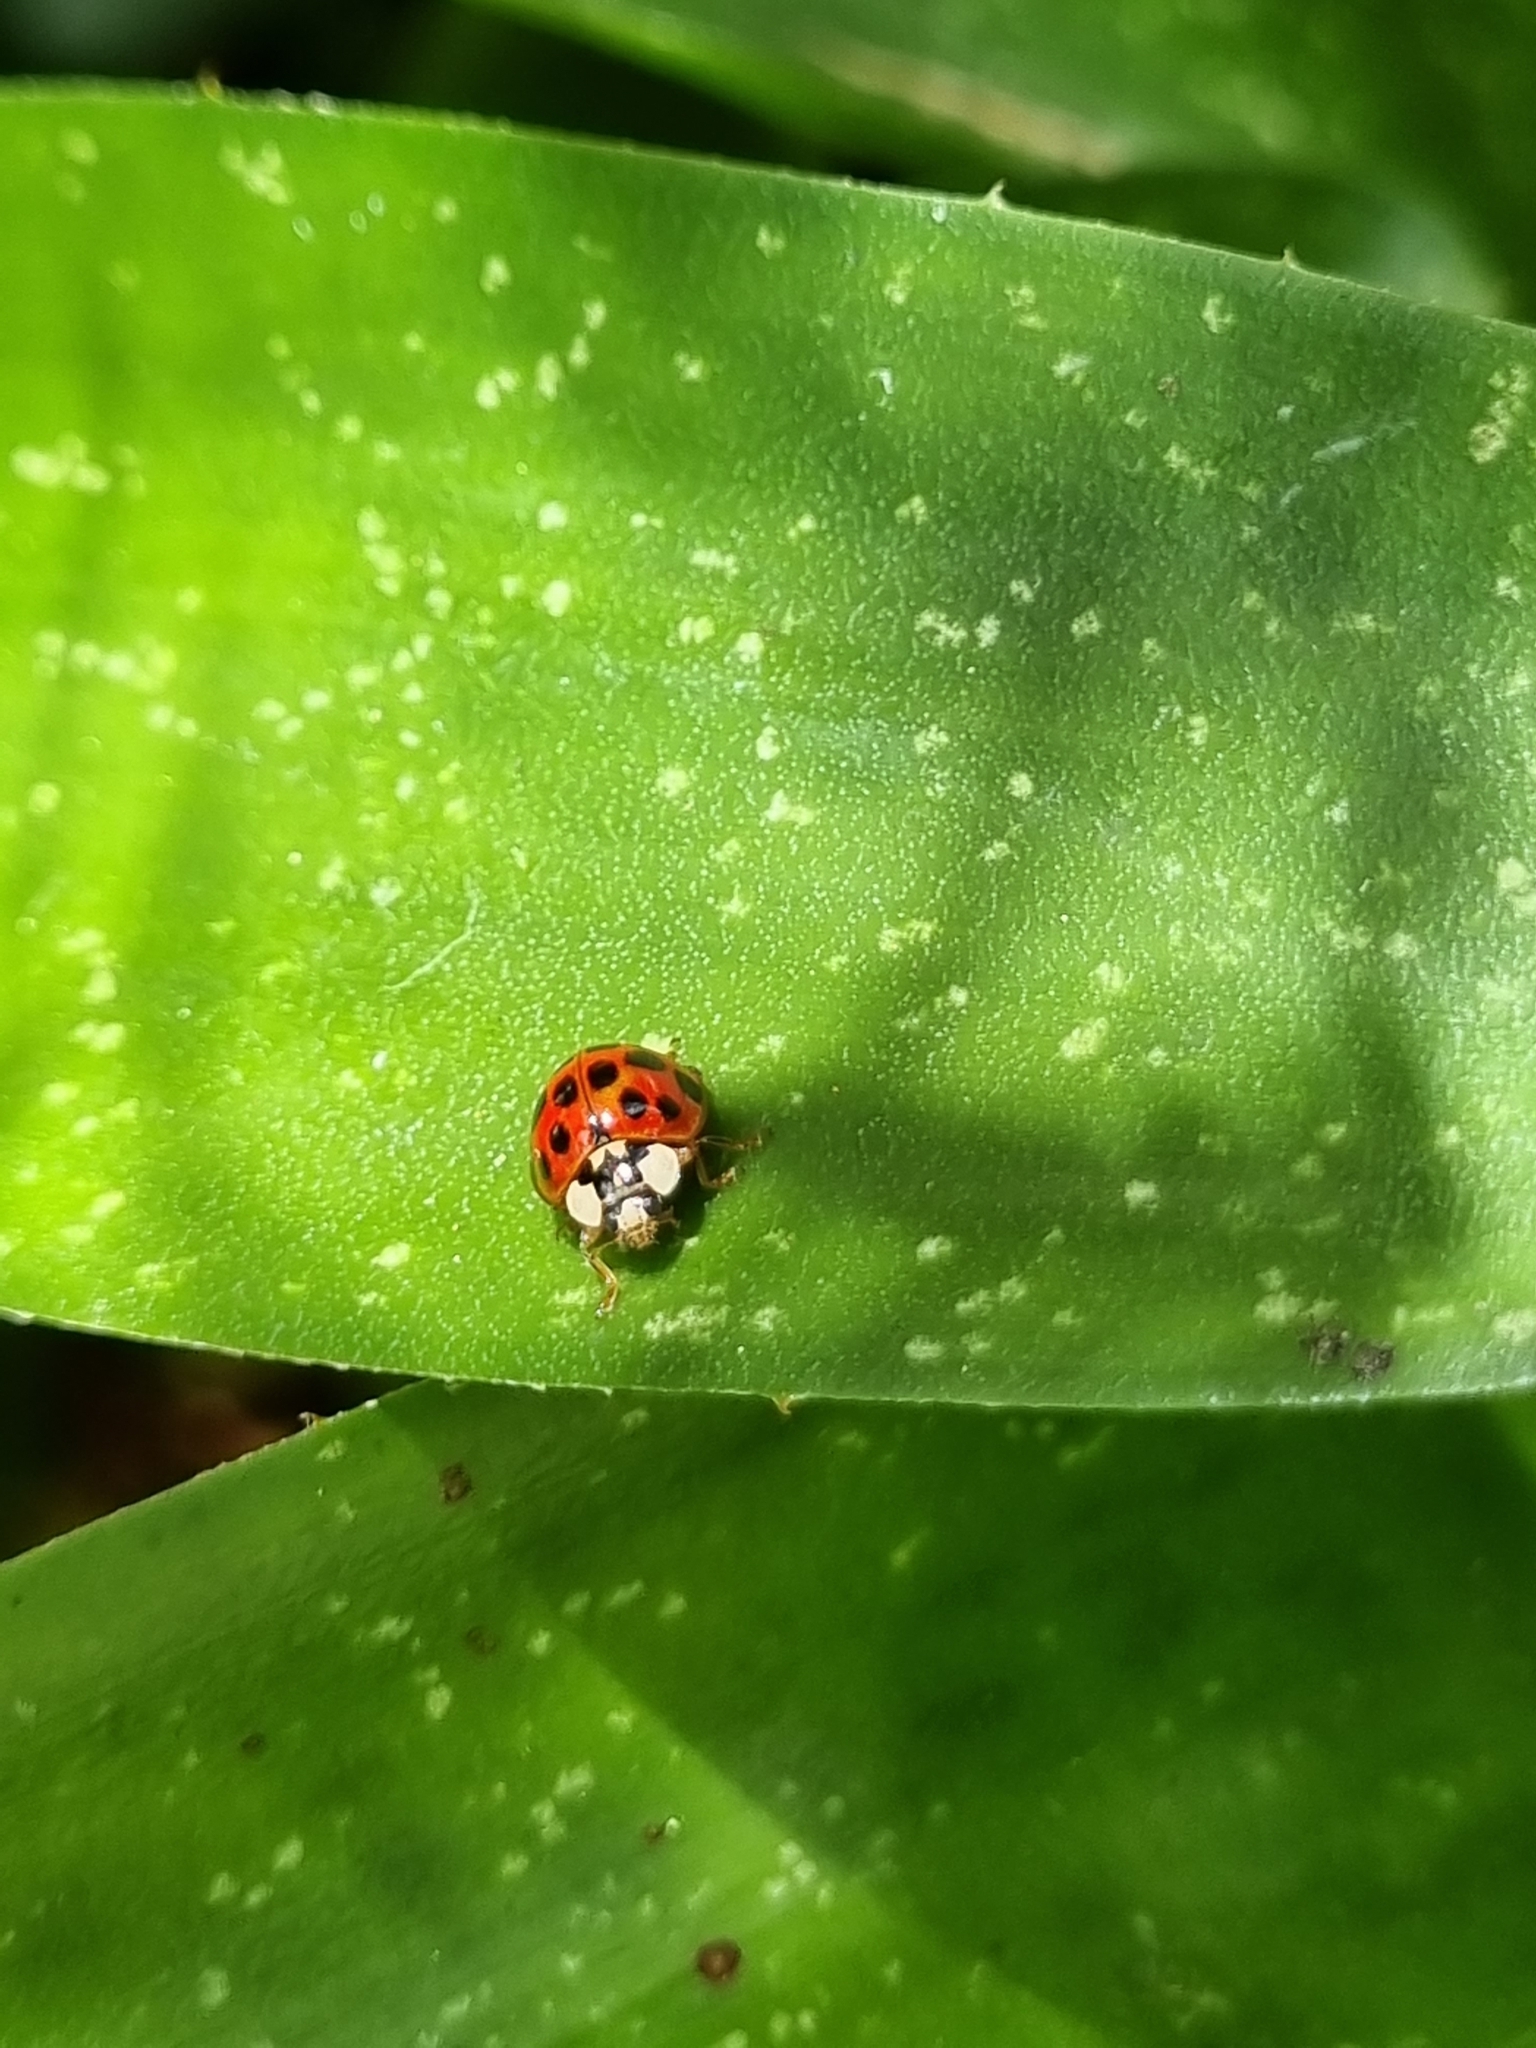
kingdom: Animalia
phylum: Arthropoda
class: Insecta
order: Coleoptera
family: Coccinellidae
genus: Harmonia
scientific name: Harmonia axyridis
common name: Harlequin ladybird
